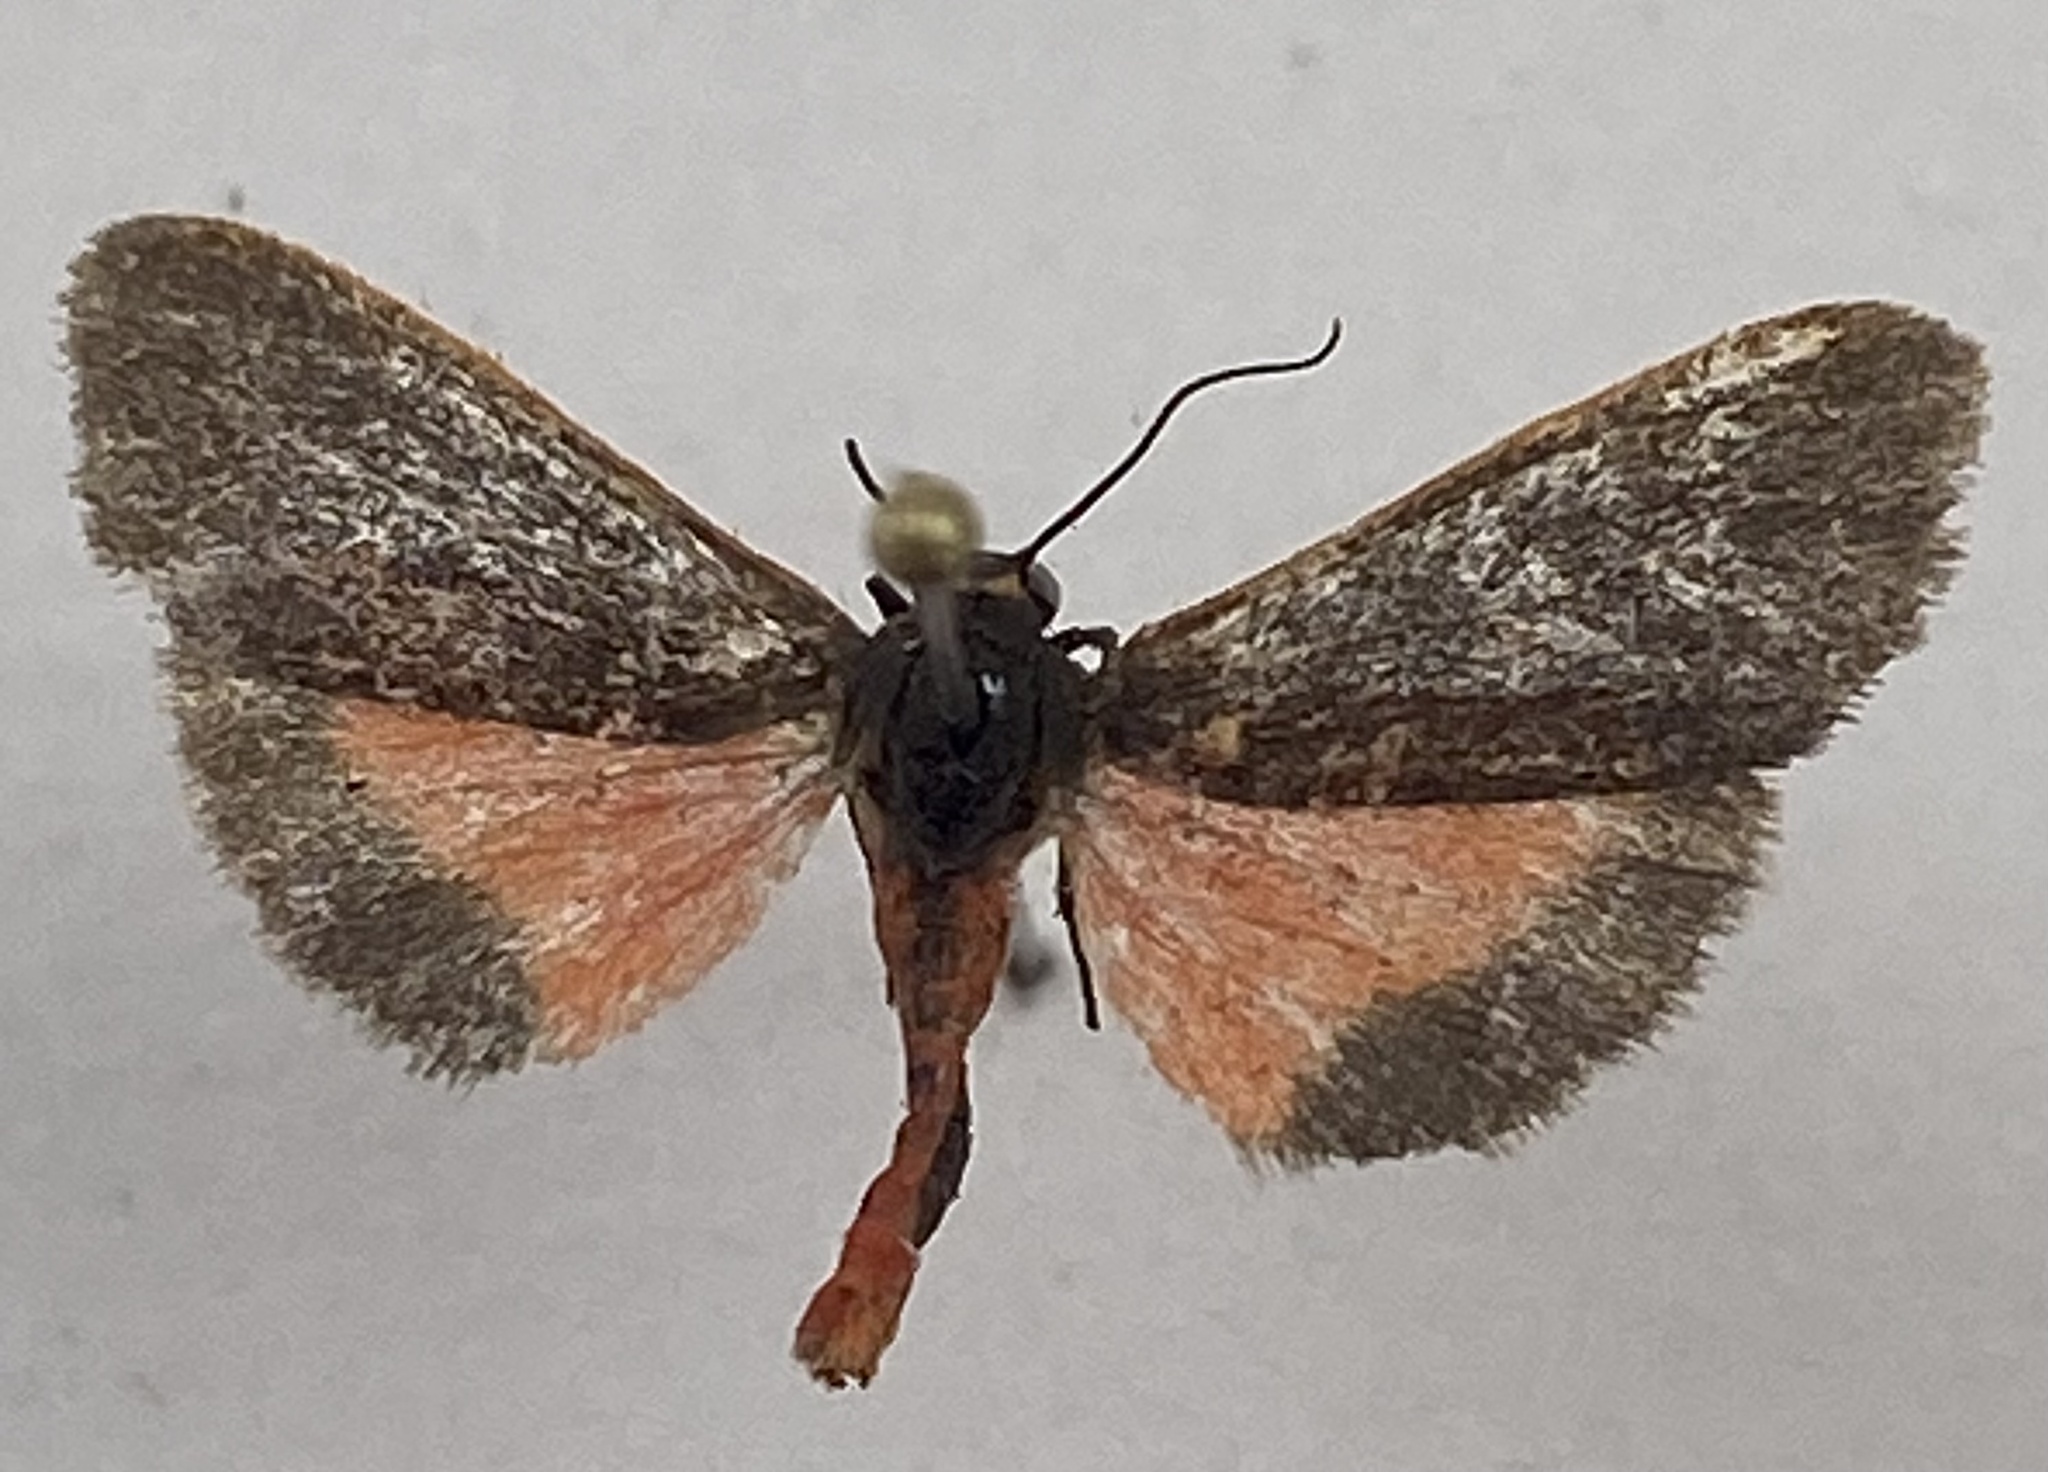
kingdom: Animalia
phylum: Arthropoda
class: Insecta
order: Lepidoptera
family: Erebidae
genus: Virbia
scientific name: Virbia laeta
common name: Joyful holomelina moth
